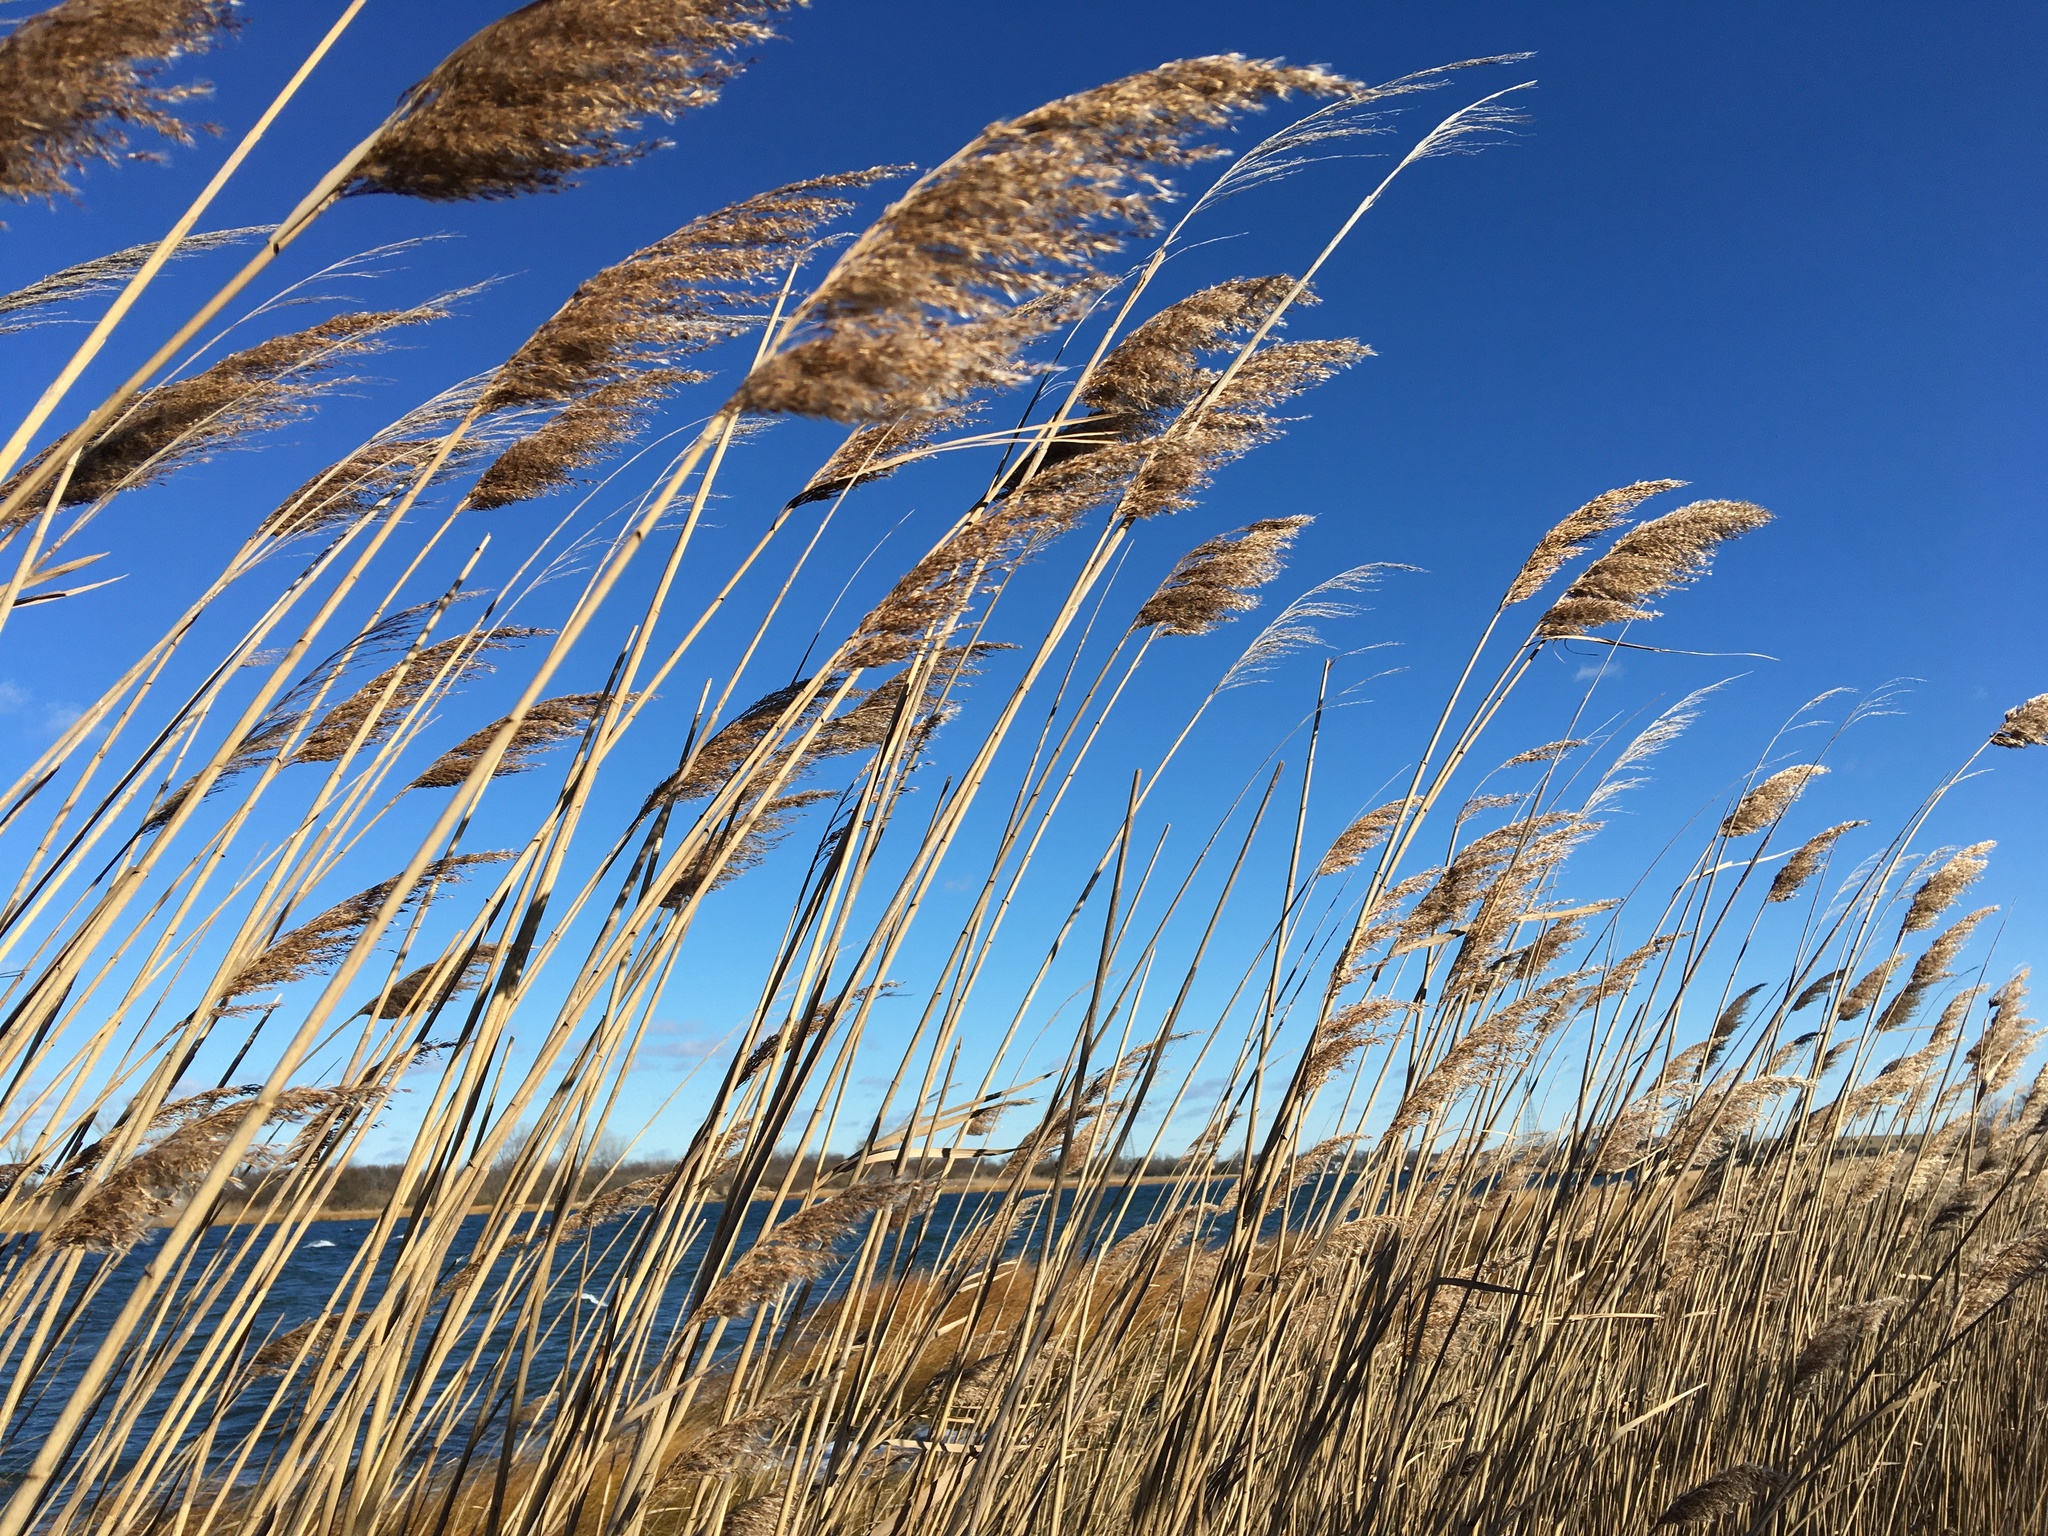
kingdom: Plantae
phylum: Tracheophyta
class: Liliopsida
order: Poales
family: Poaceae
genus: Phragmites
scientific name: Phragmites australis
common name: Common reed
